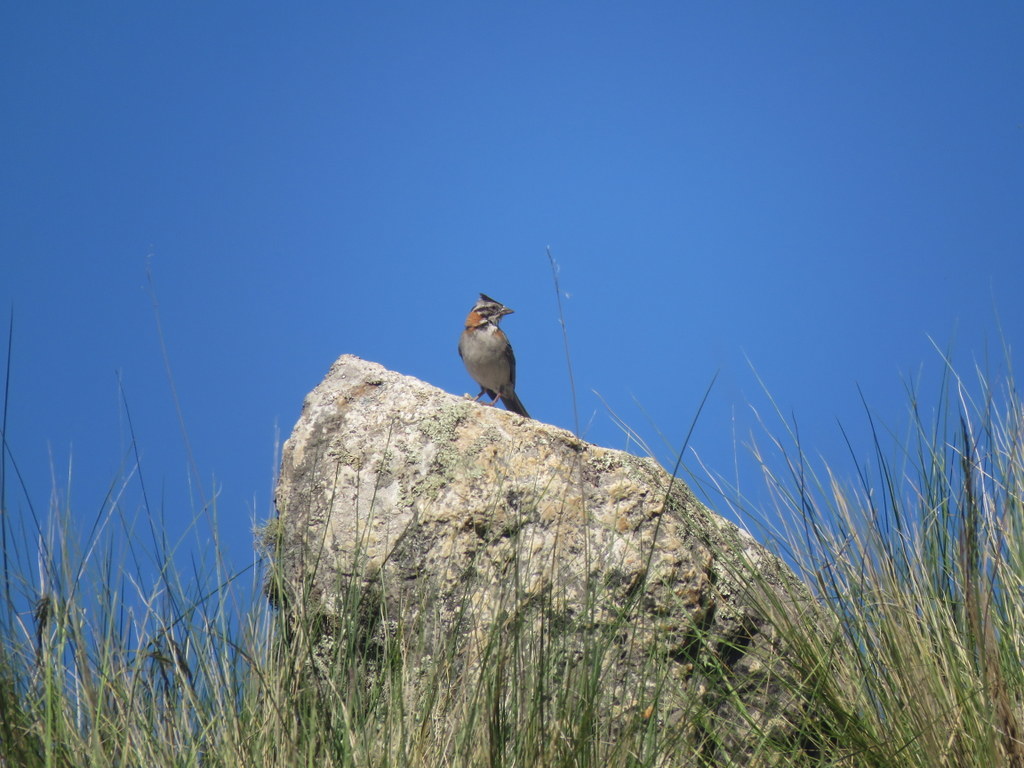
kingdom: Animalia
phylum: Chordata
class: Aves
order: Passeriformes
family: Passerellidae
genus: Zonotrichia
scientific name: Zonotrichia capensis
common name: Rufous-collared sparrow
